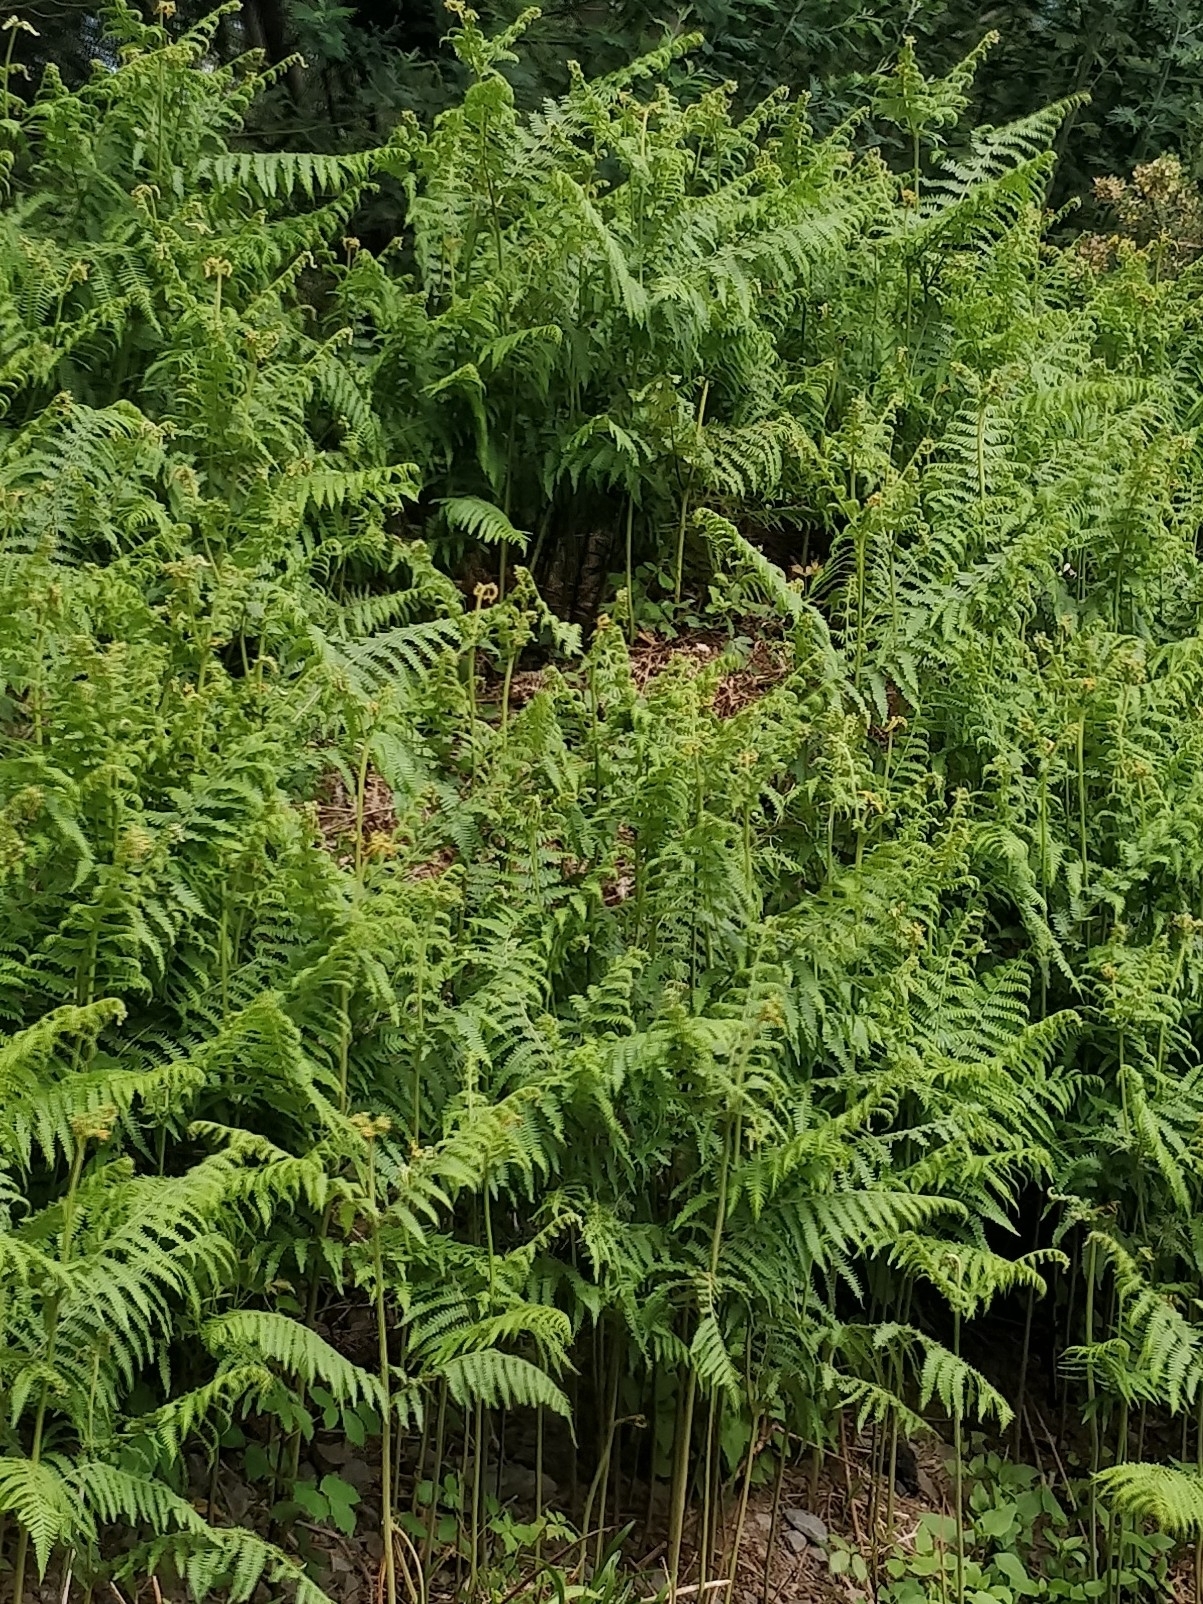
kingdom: Plantae
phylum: Tracheophyta
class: Polypodiopsida
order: Polypodiales
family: Dennstaedtiaceae
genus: Pteridium
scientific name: Pteridium aquilinum
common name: Bracken
